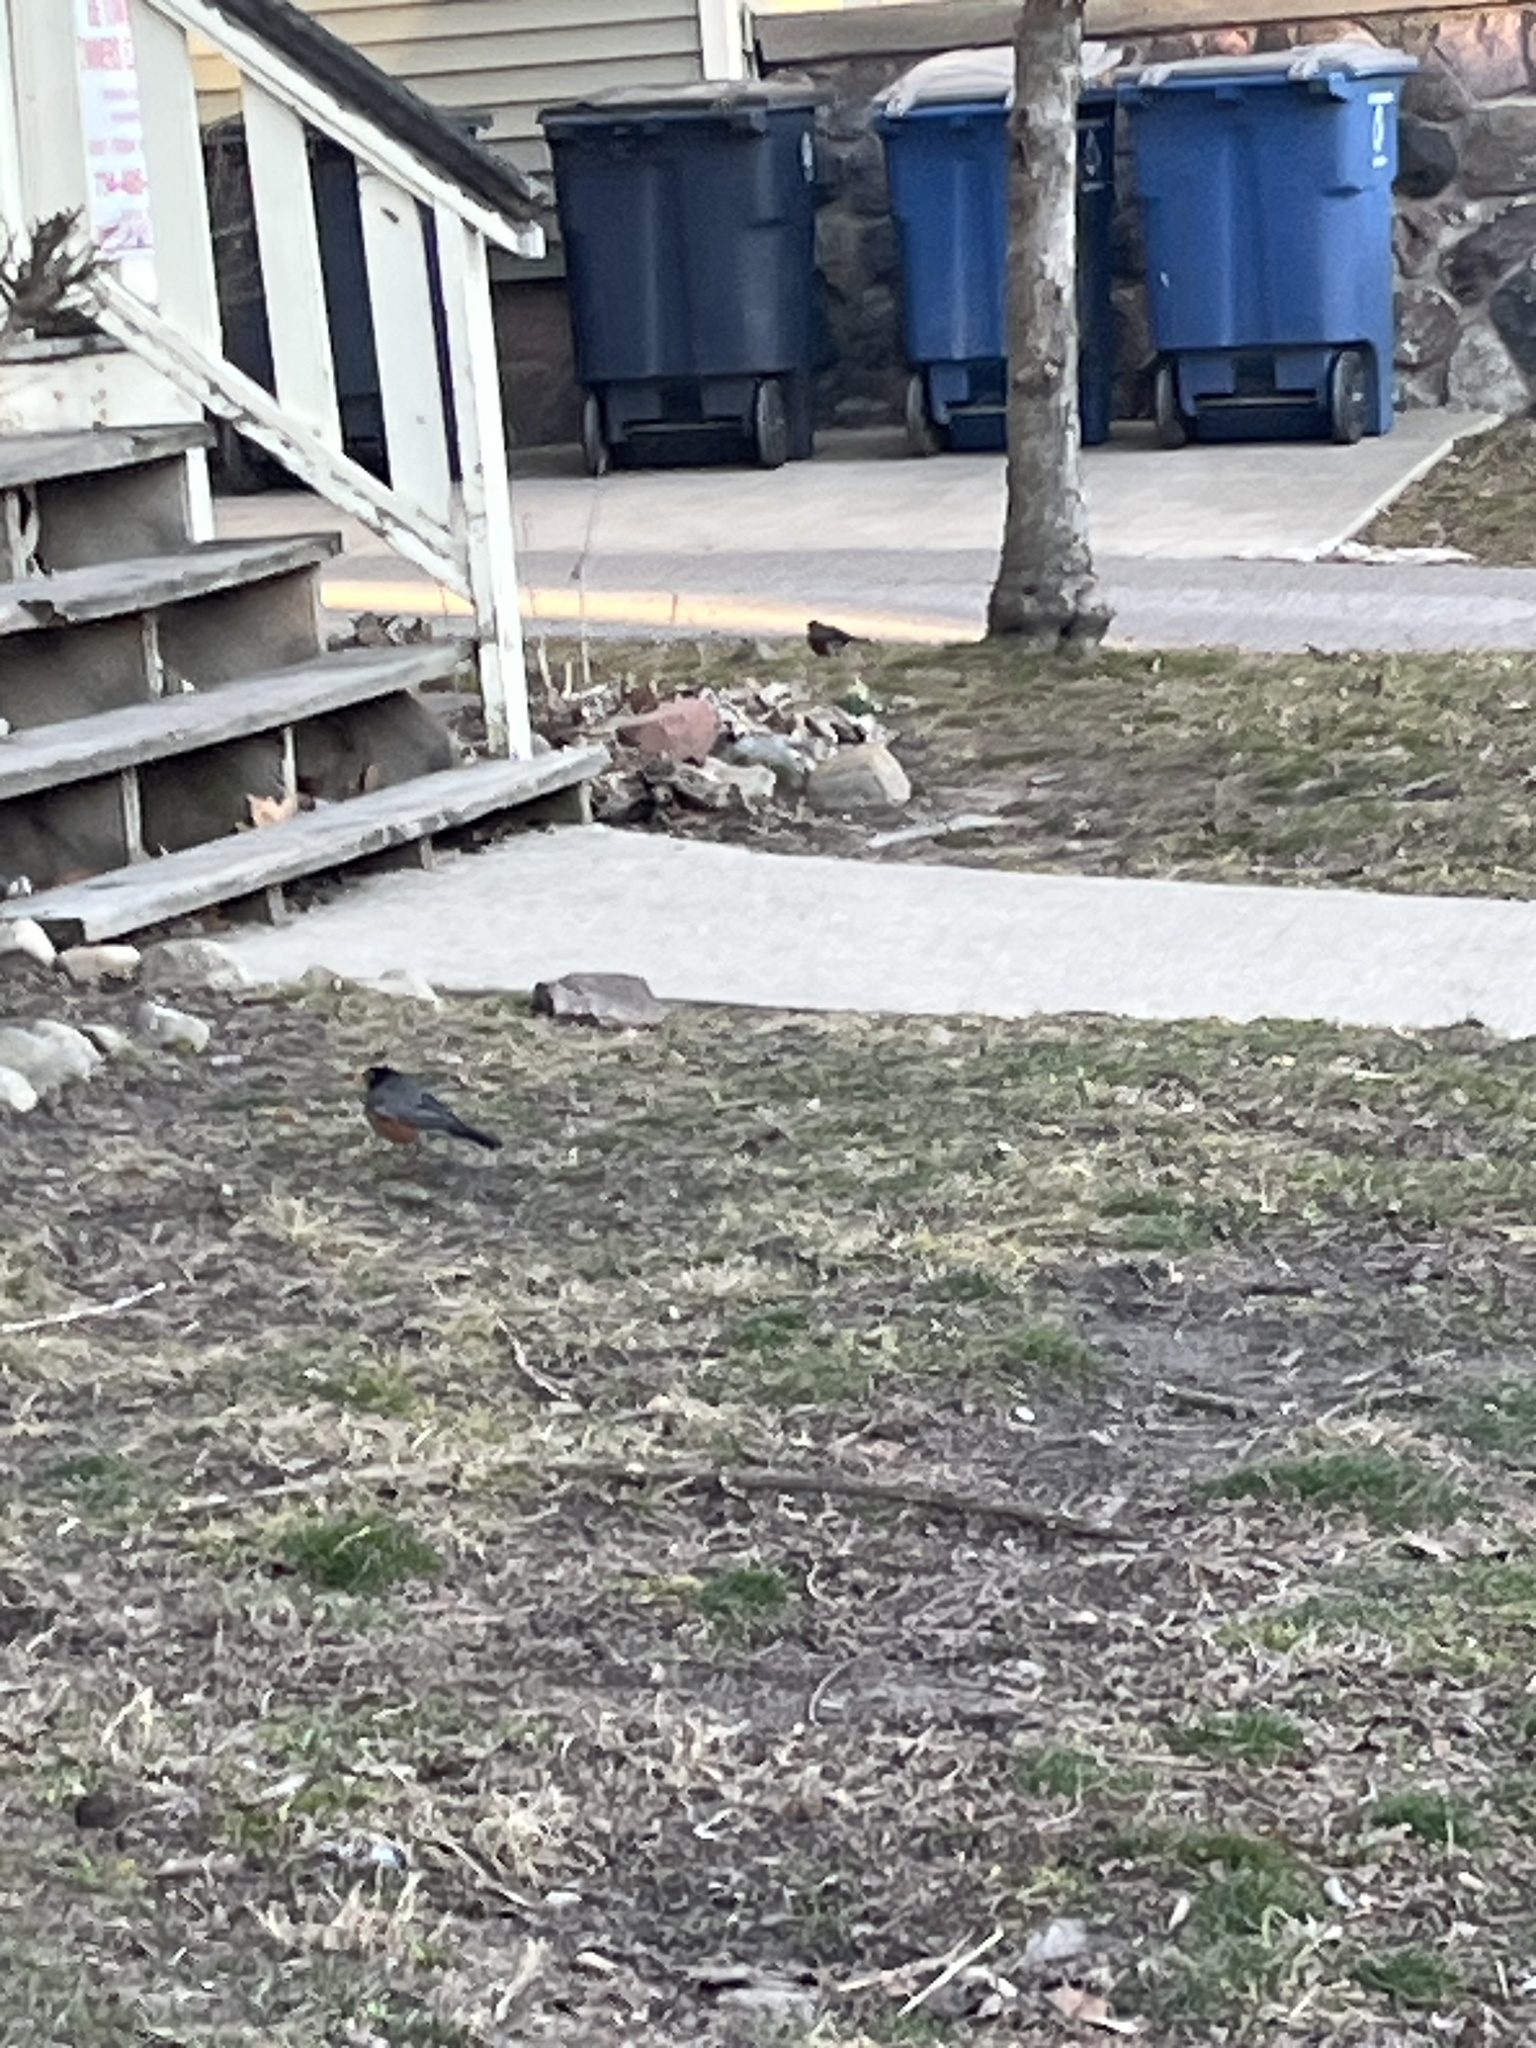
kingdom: Animalia
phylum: Chordata
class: Aves
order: Passeriformes
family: Turdidae
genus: Turdus
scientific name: Turdus migratorius
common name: American robin
